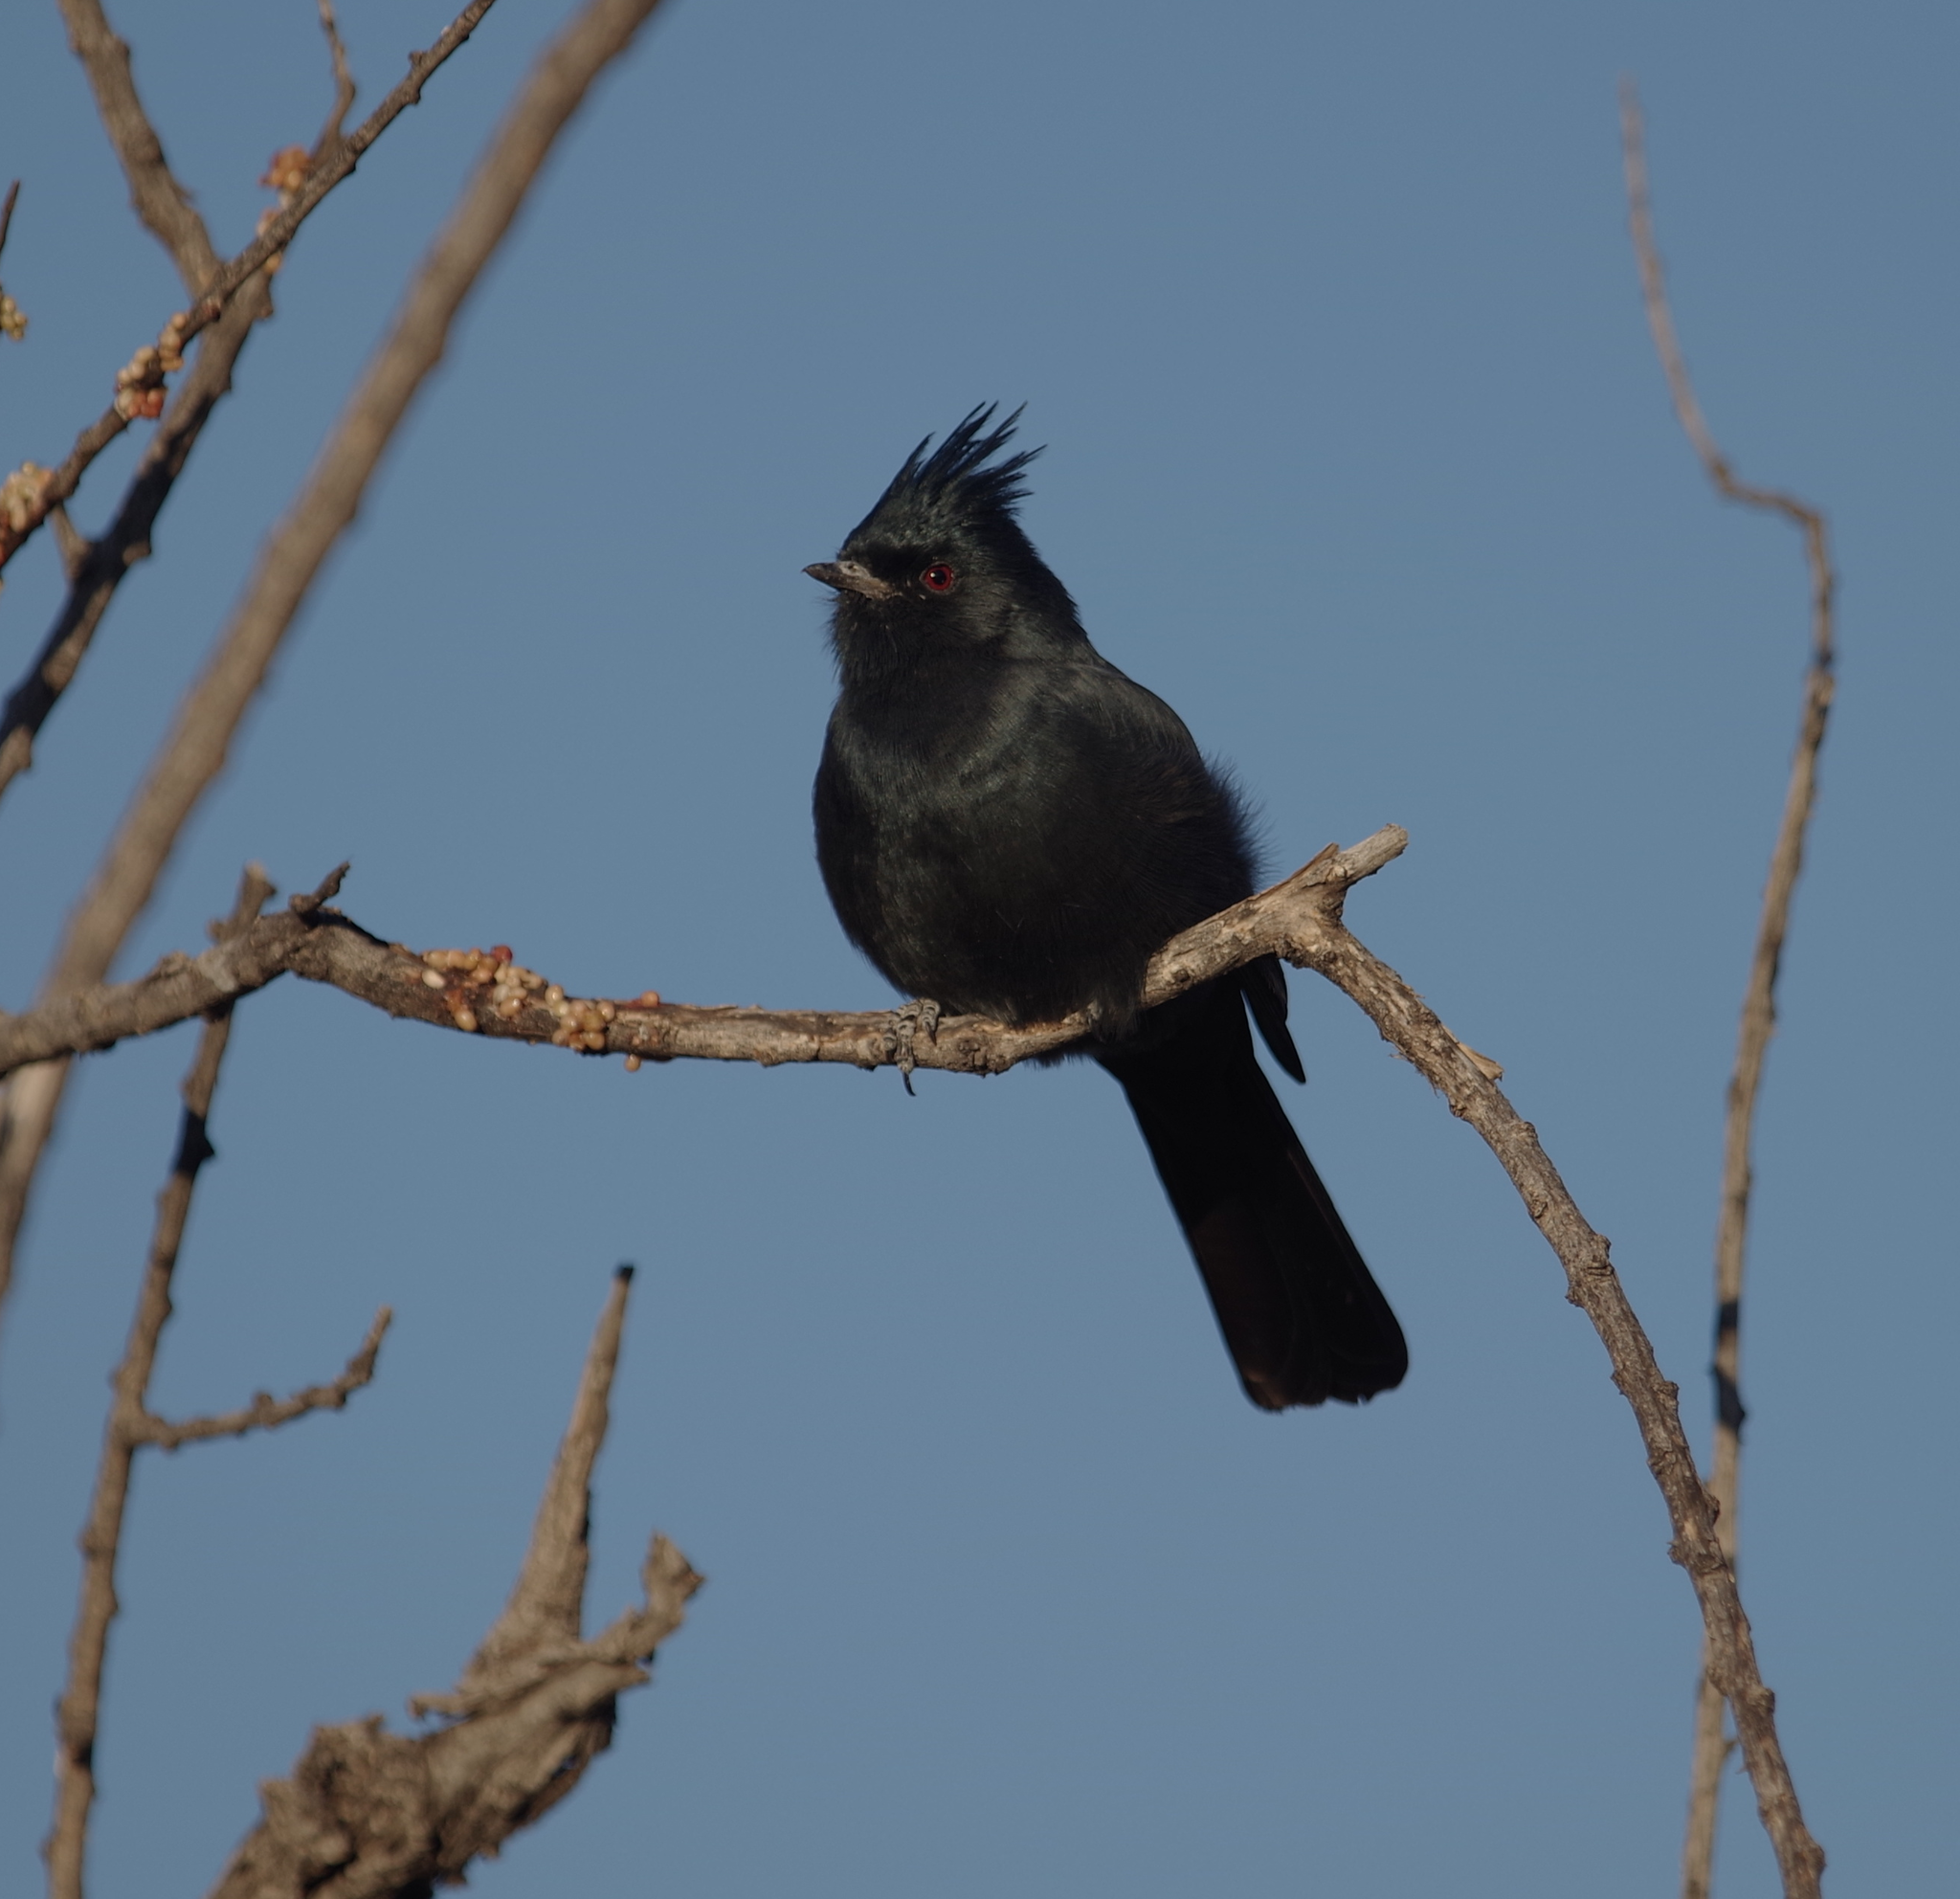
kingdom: Animalia
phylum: Chordata
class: Aves
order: Passeriformes
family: Ptilogonatidae
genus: Phainopepla
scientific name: Phainopepla nitens
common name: Phainopepla
